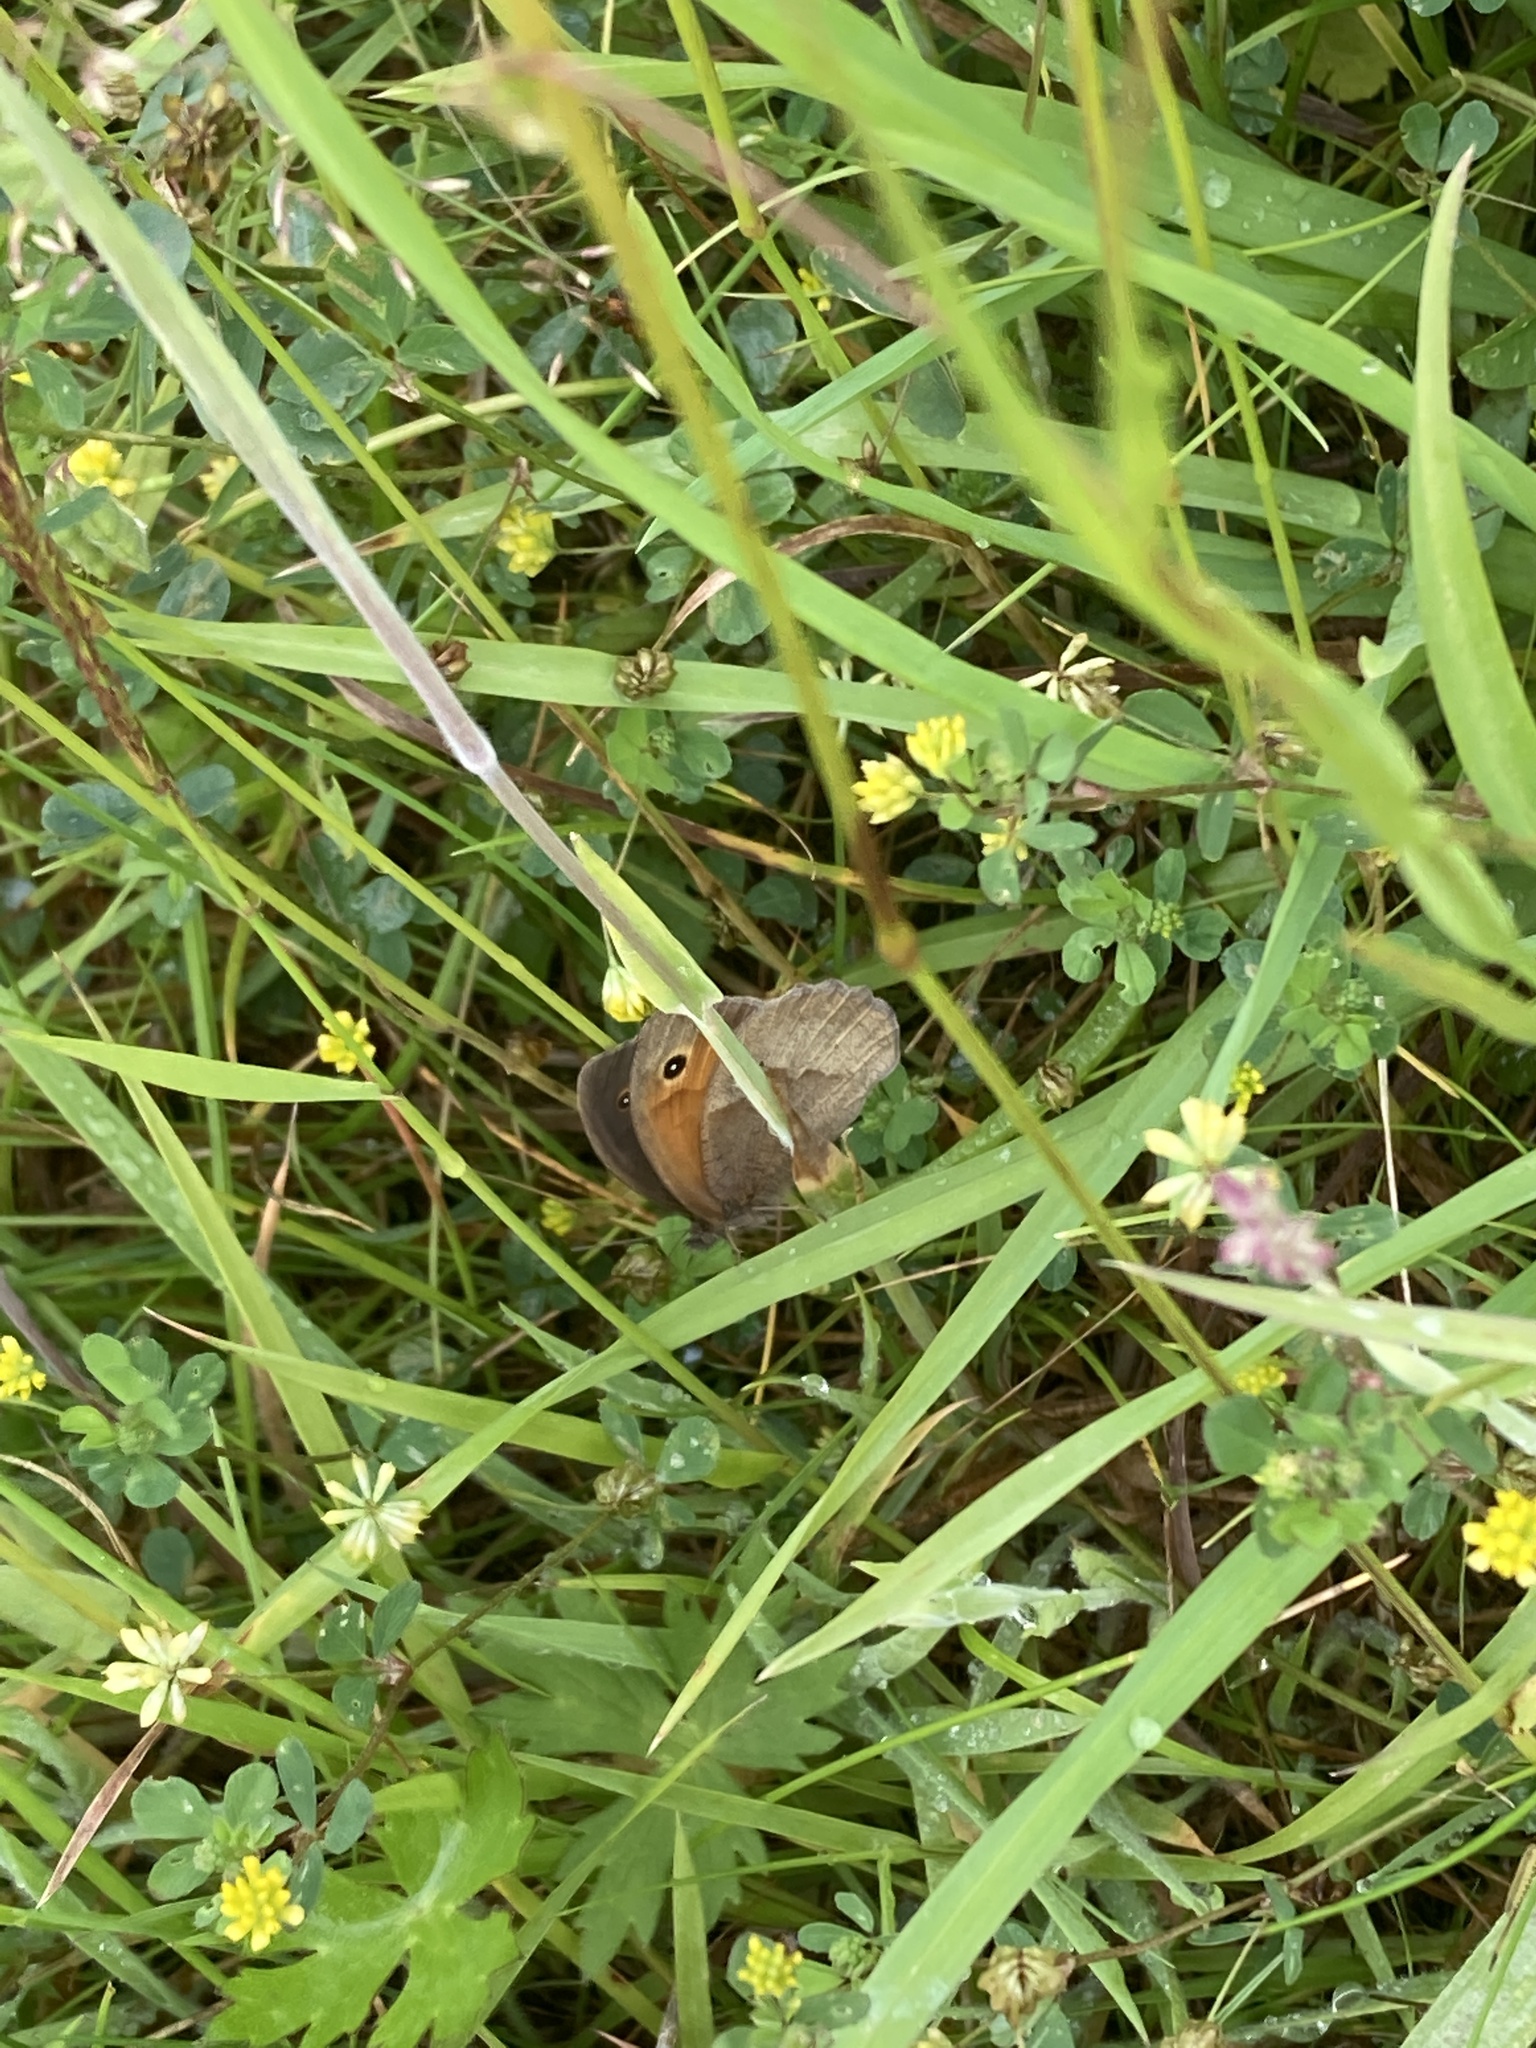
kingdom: Animalia
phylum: Arthropoda
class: Insecta
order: Lepidoptera
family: Nymphalidae
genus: Maniola
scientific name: Maniola jurtina
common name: Meadow brown
